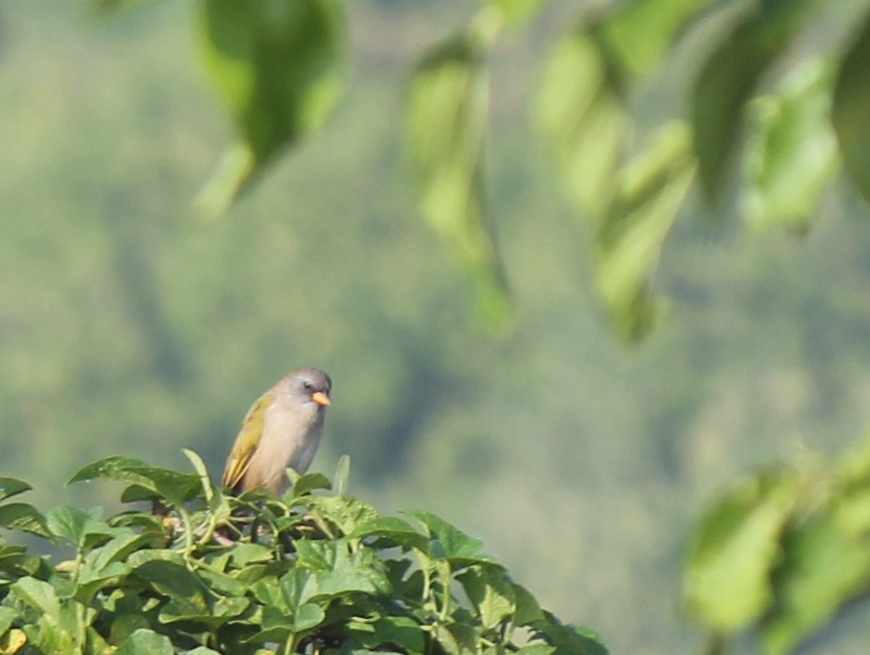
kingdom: Animalia
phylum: Chordata
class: Aves
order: Passeriformes
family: Thraupidae
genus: Embernagra
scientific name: Embernagra platensis
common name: Pampa finch
